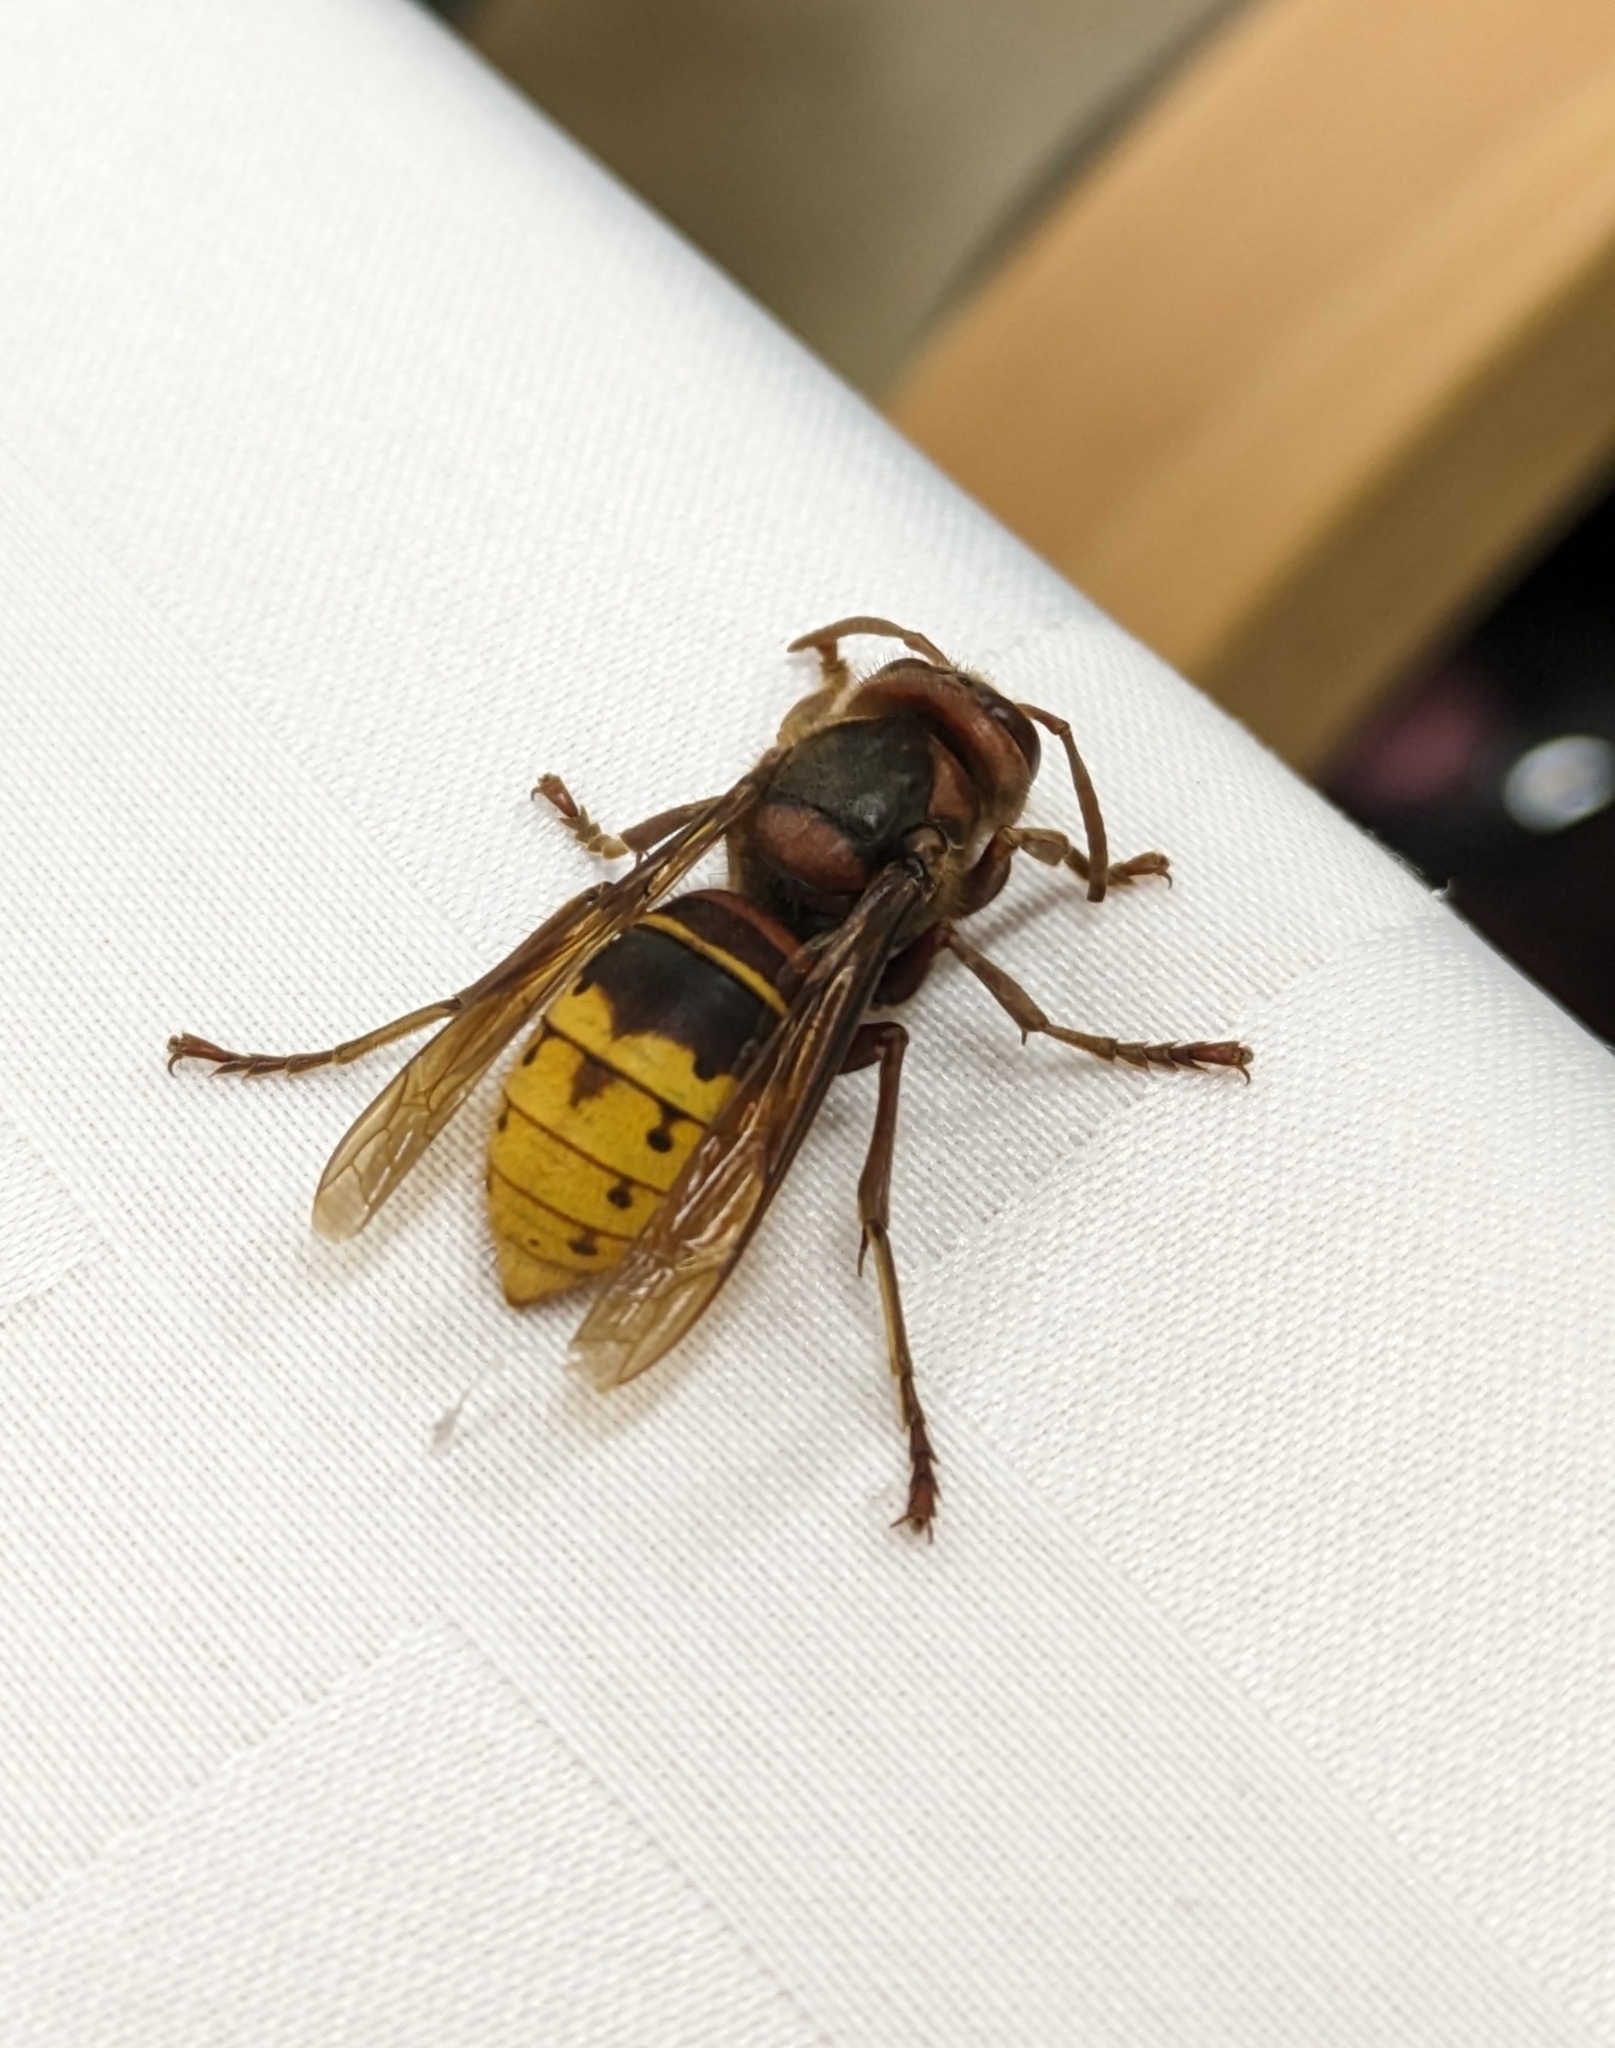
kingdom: Animalia
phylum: Arthropoda
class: Insecta
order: Hymenoptera
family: Vespidae
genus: Vespa
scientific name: Vespa crabro
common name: Hornet
